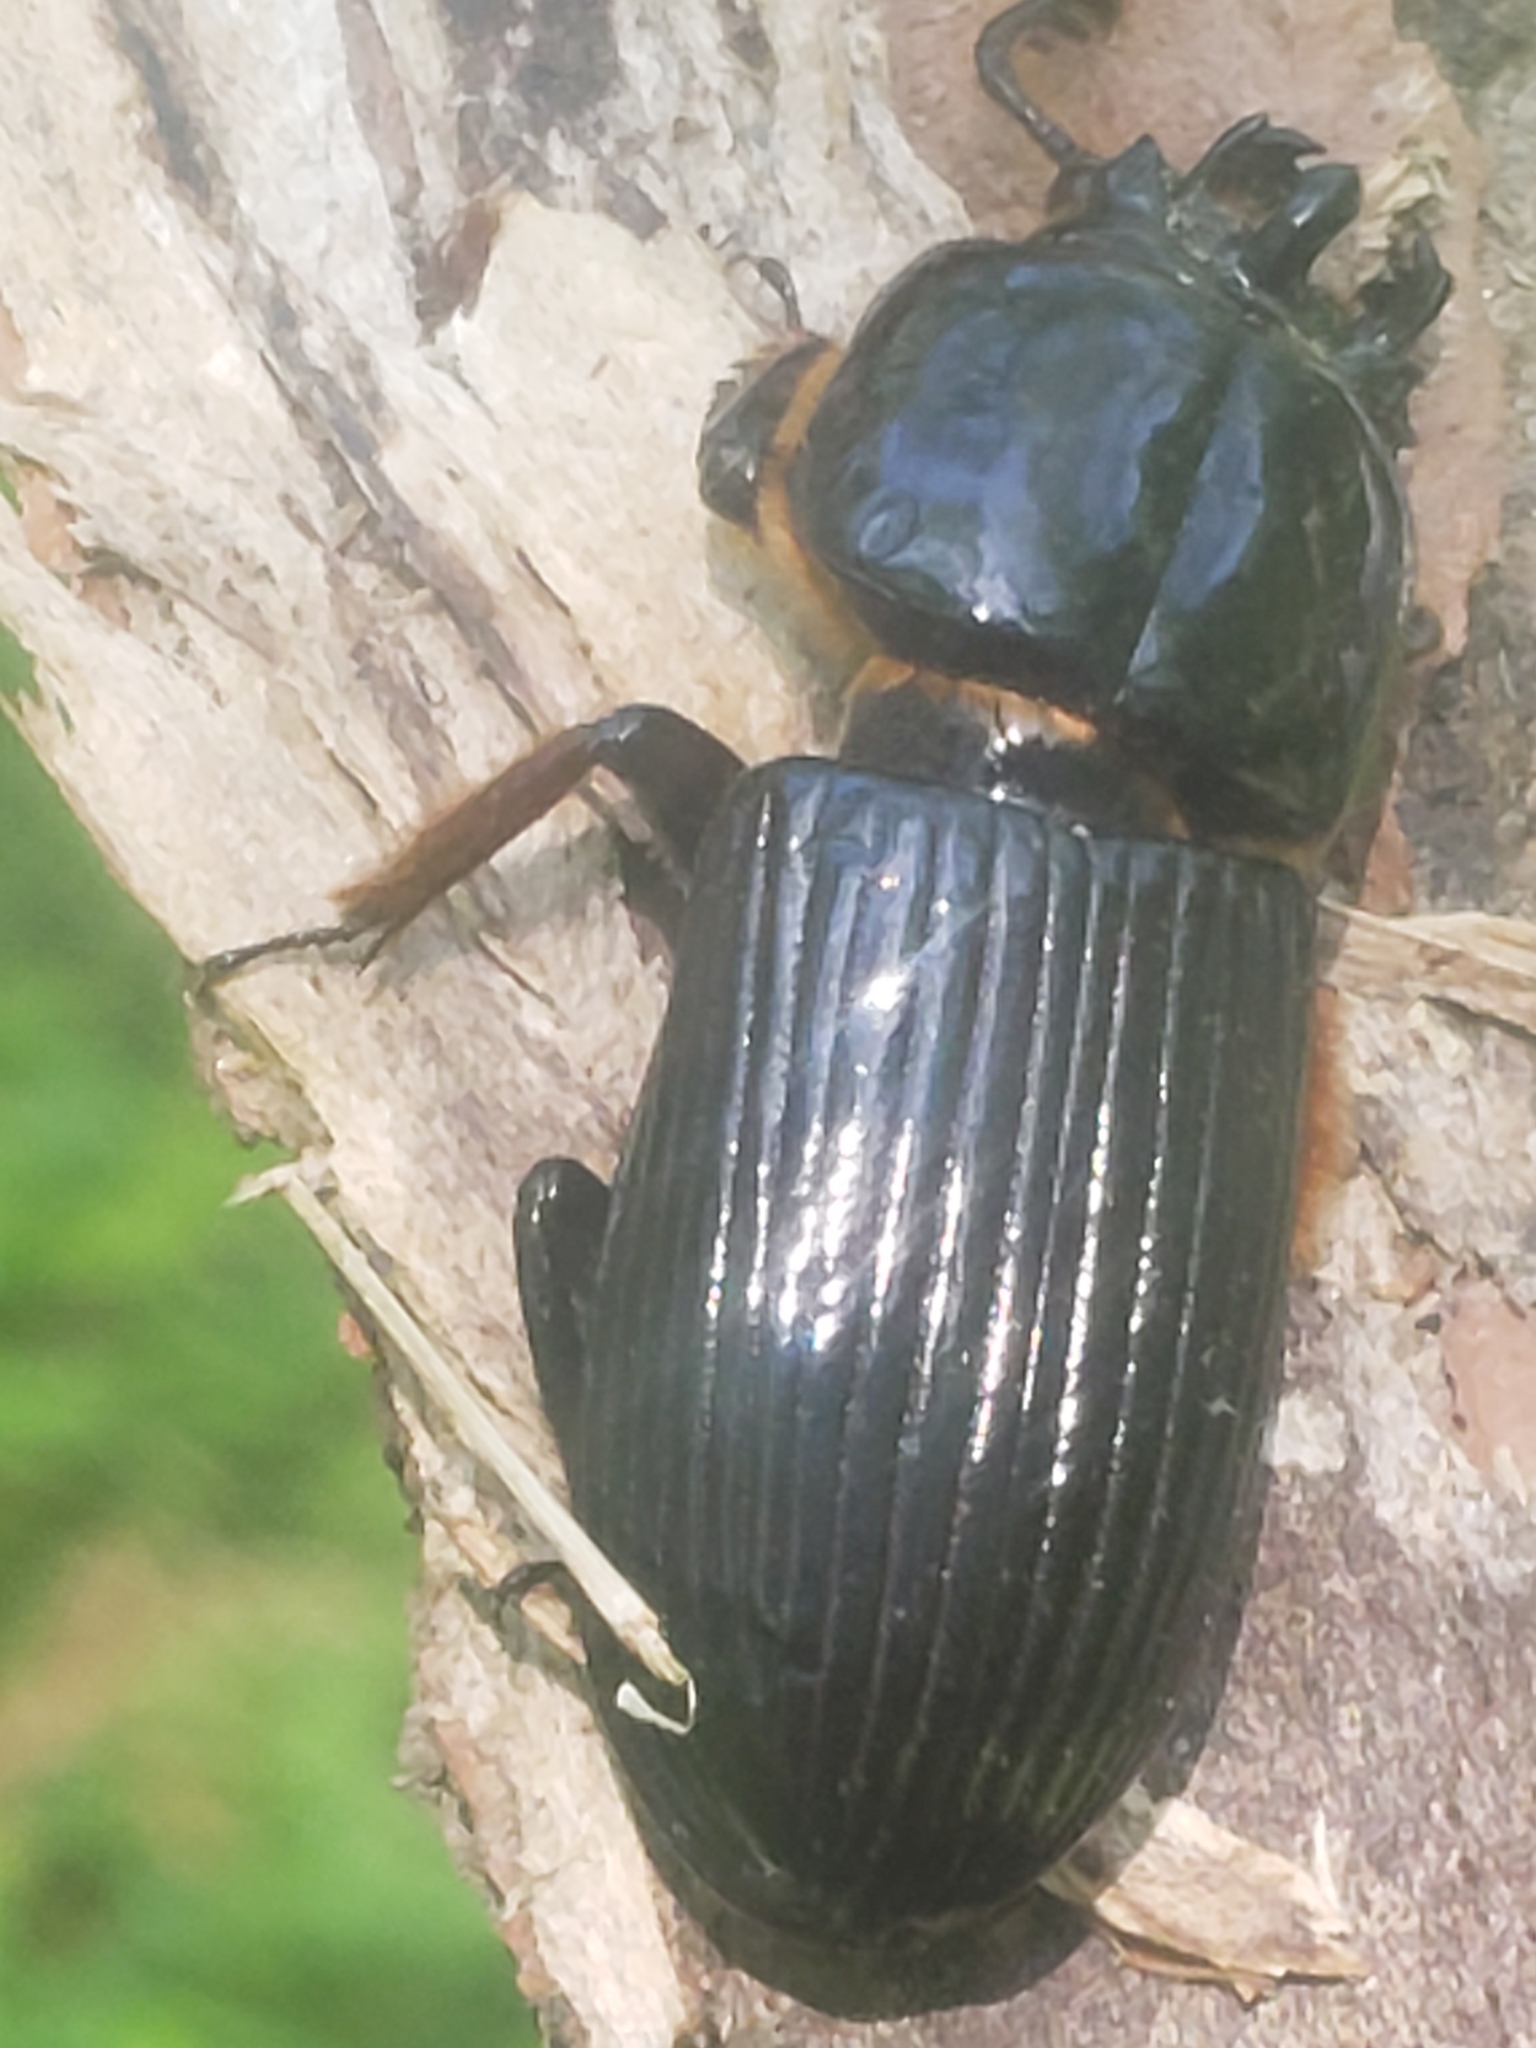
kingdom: Animalia
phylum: Arthropoda
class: Insecta
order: Coleoptera
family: Passalidae
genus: Odontotaenius
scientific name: Odontotaenius disjunctus
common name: Patent leather beetle
